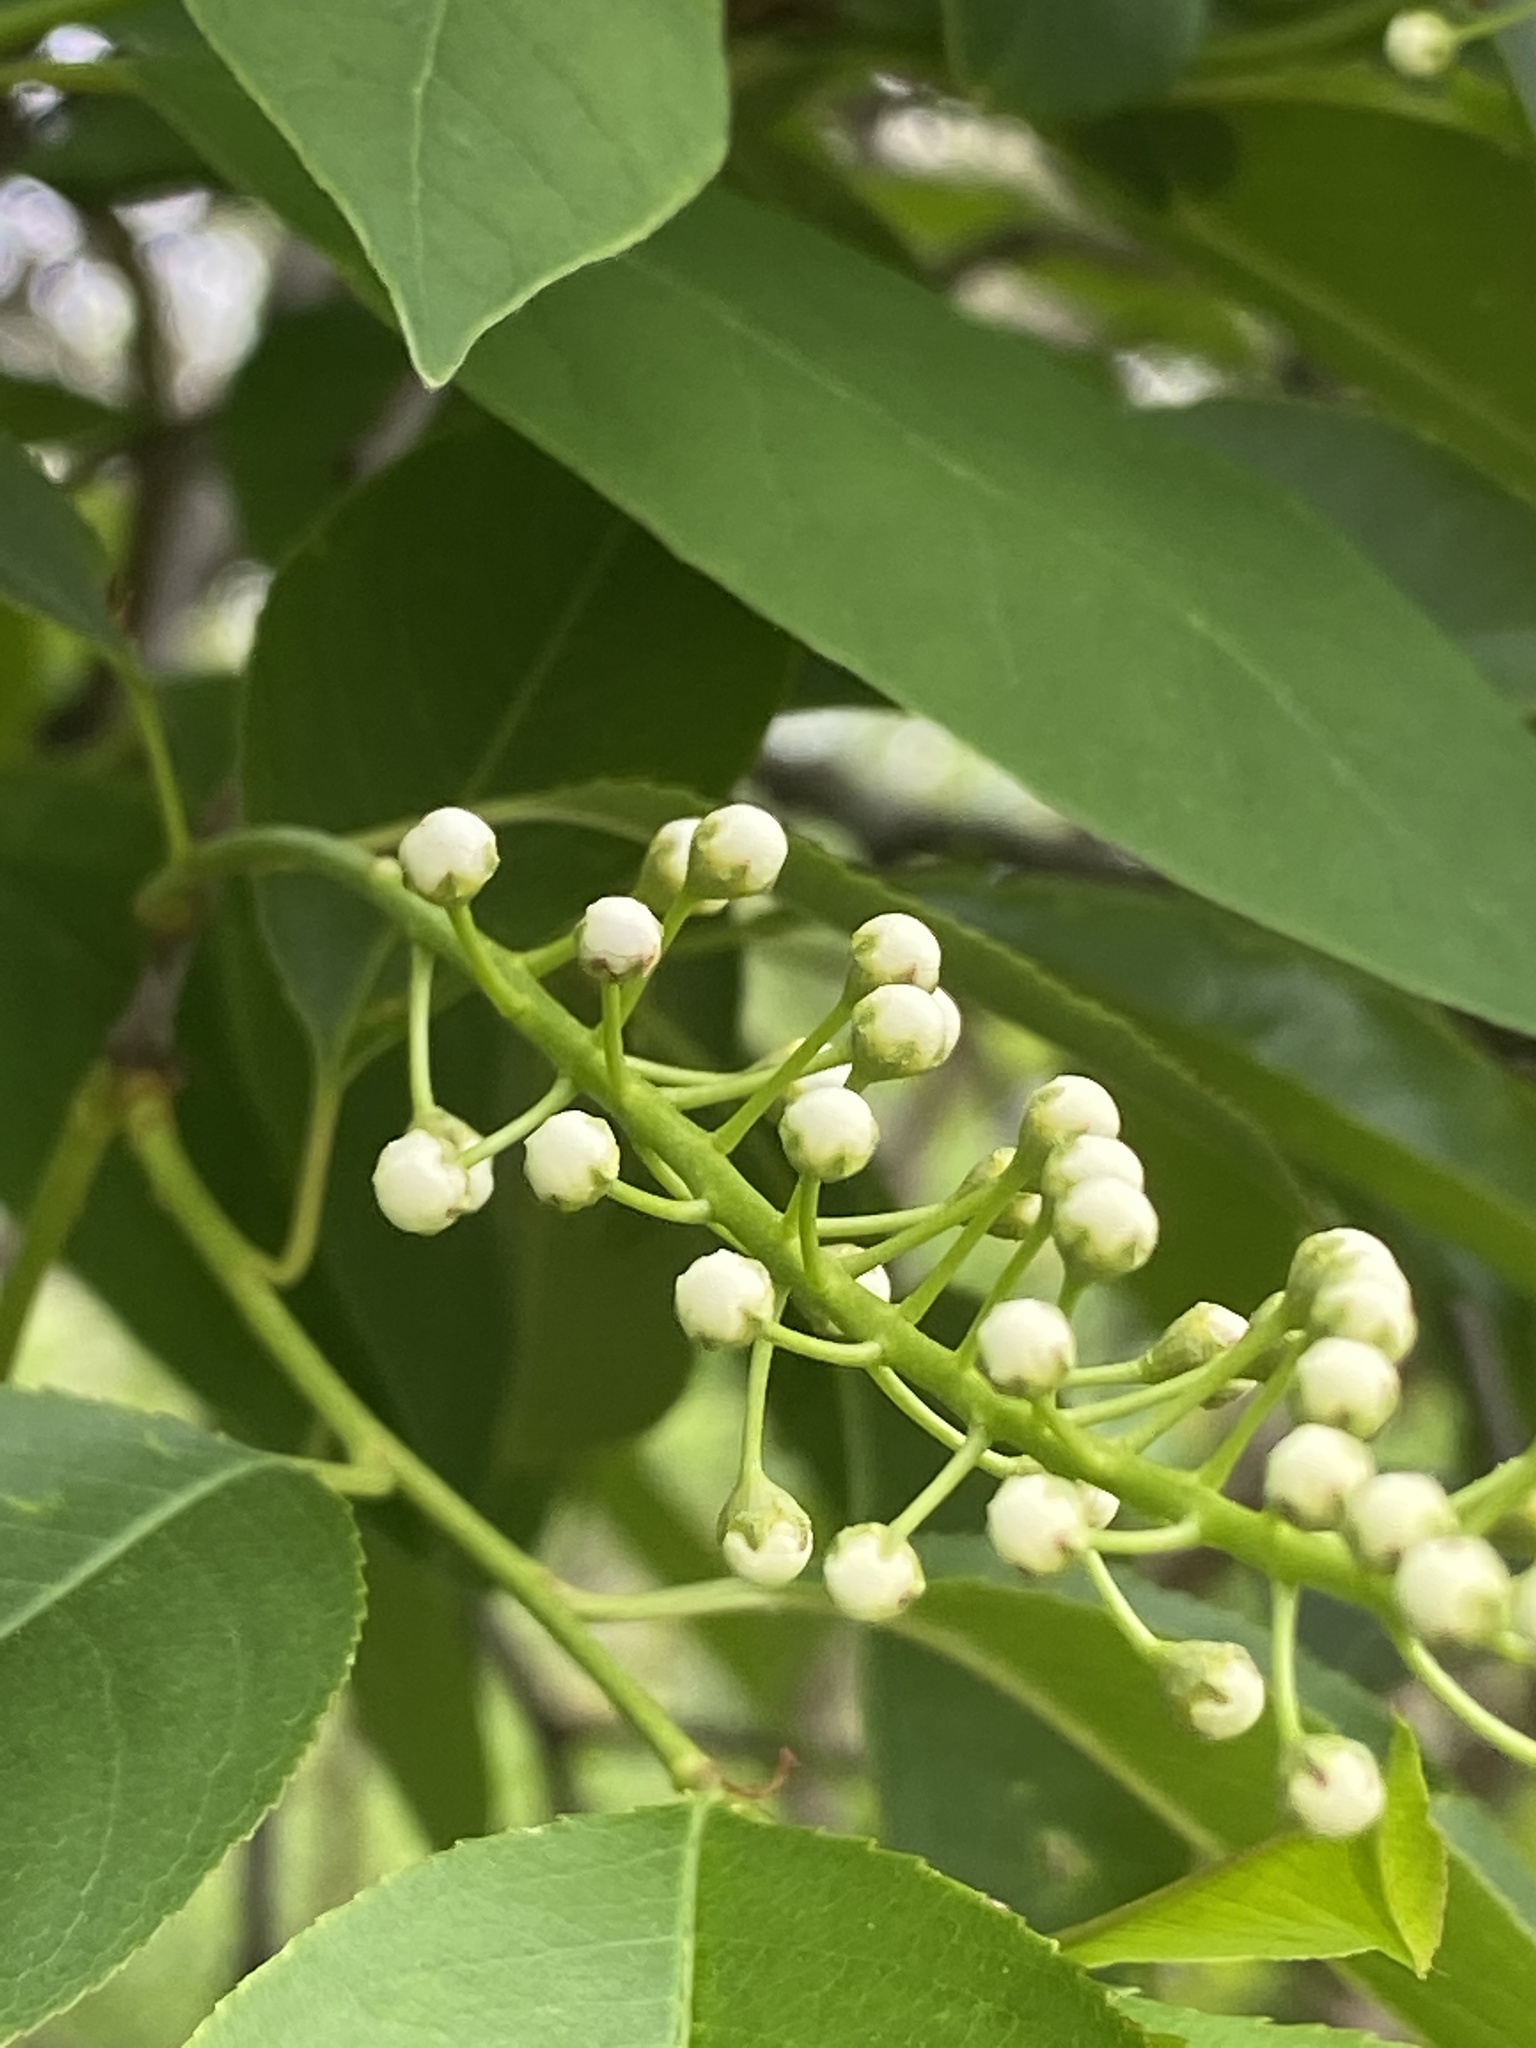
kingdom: Plantae
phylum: Tracheophyta
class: Magnoliopsida
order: Rosales
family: Rosaceae
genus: Prunus
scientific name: Prunus serotina
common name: Black cherry
